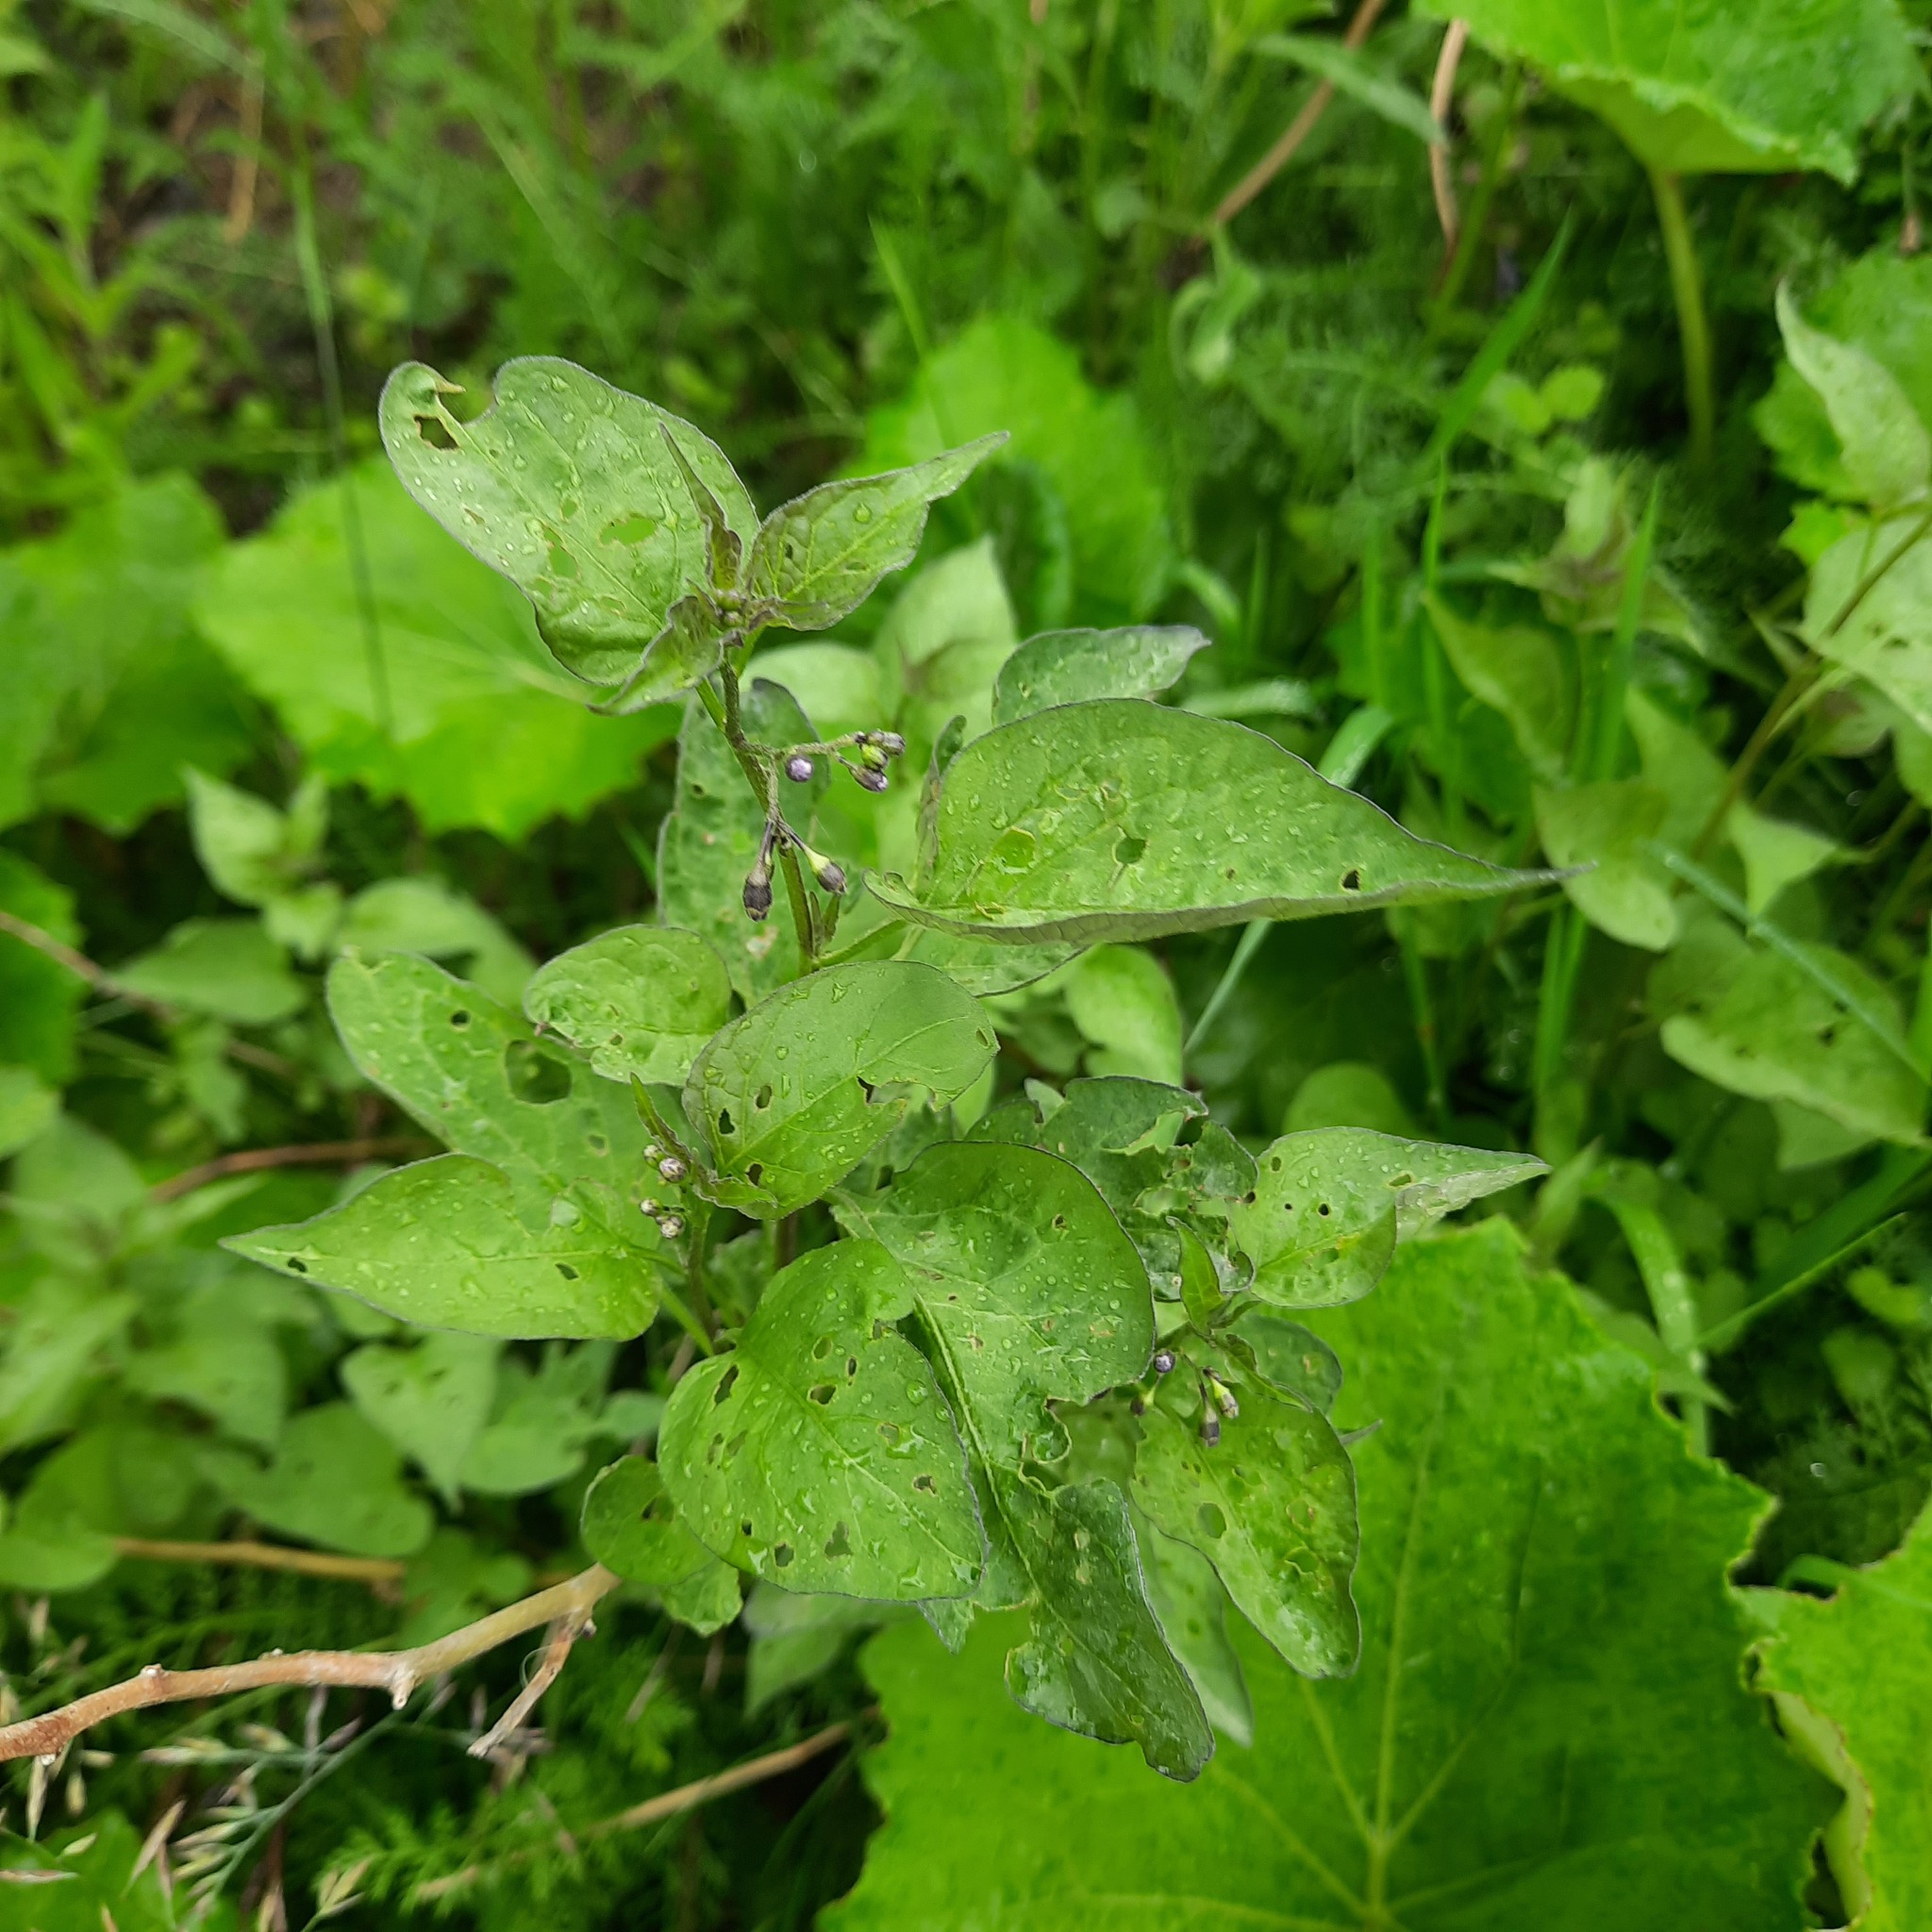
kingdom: Plantae
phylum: Tracheophyta
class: Magnoliopsida
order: Solanales
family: Solanaceae
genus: Solanum
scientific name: Solanum dulcamara
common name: Climbing nightshade
